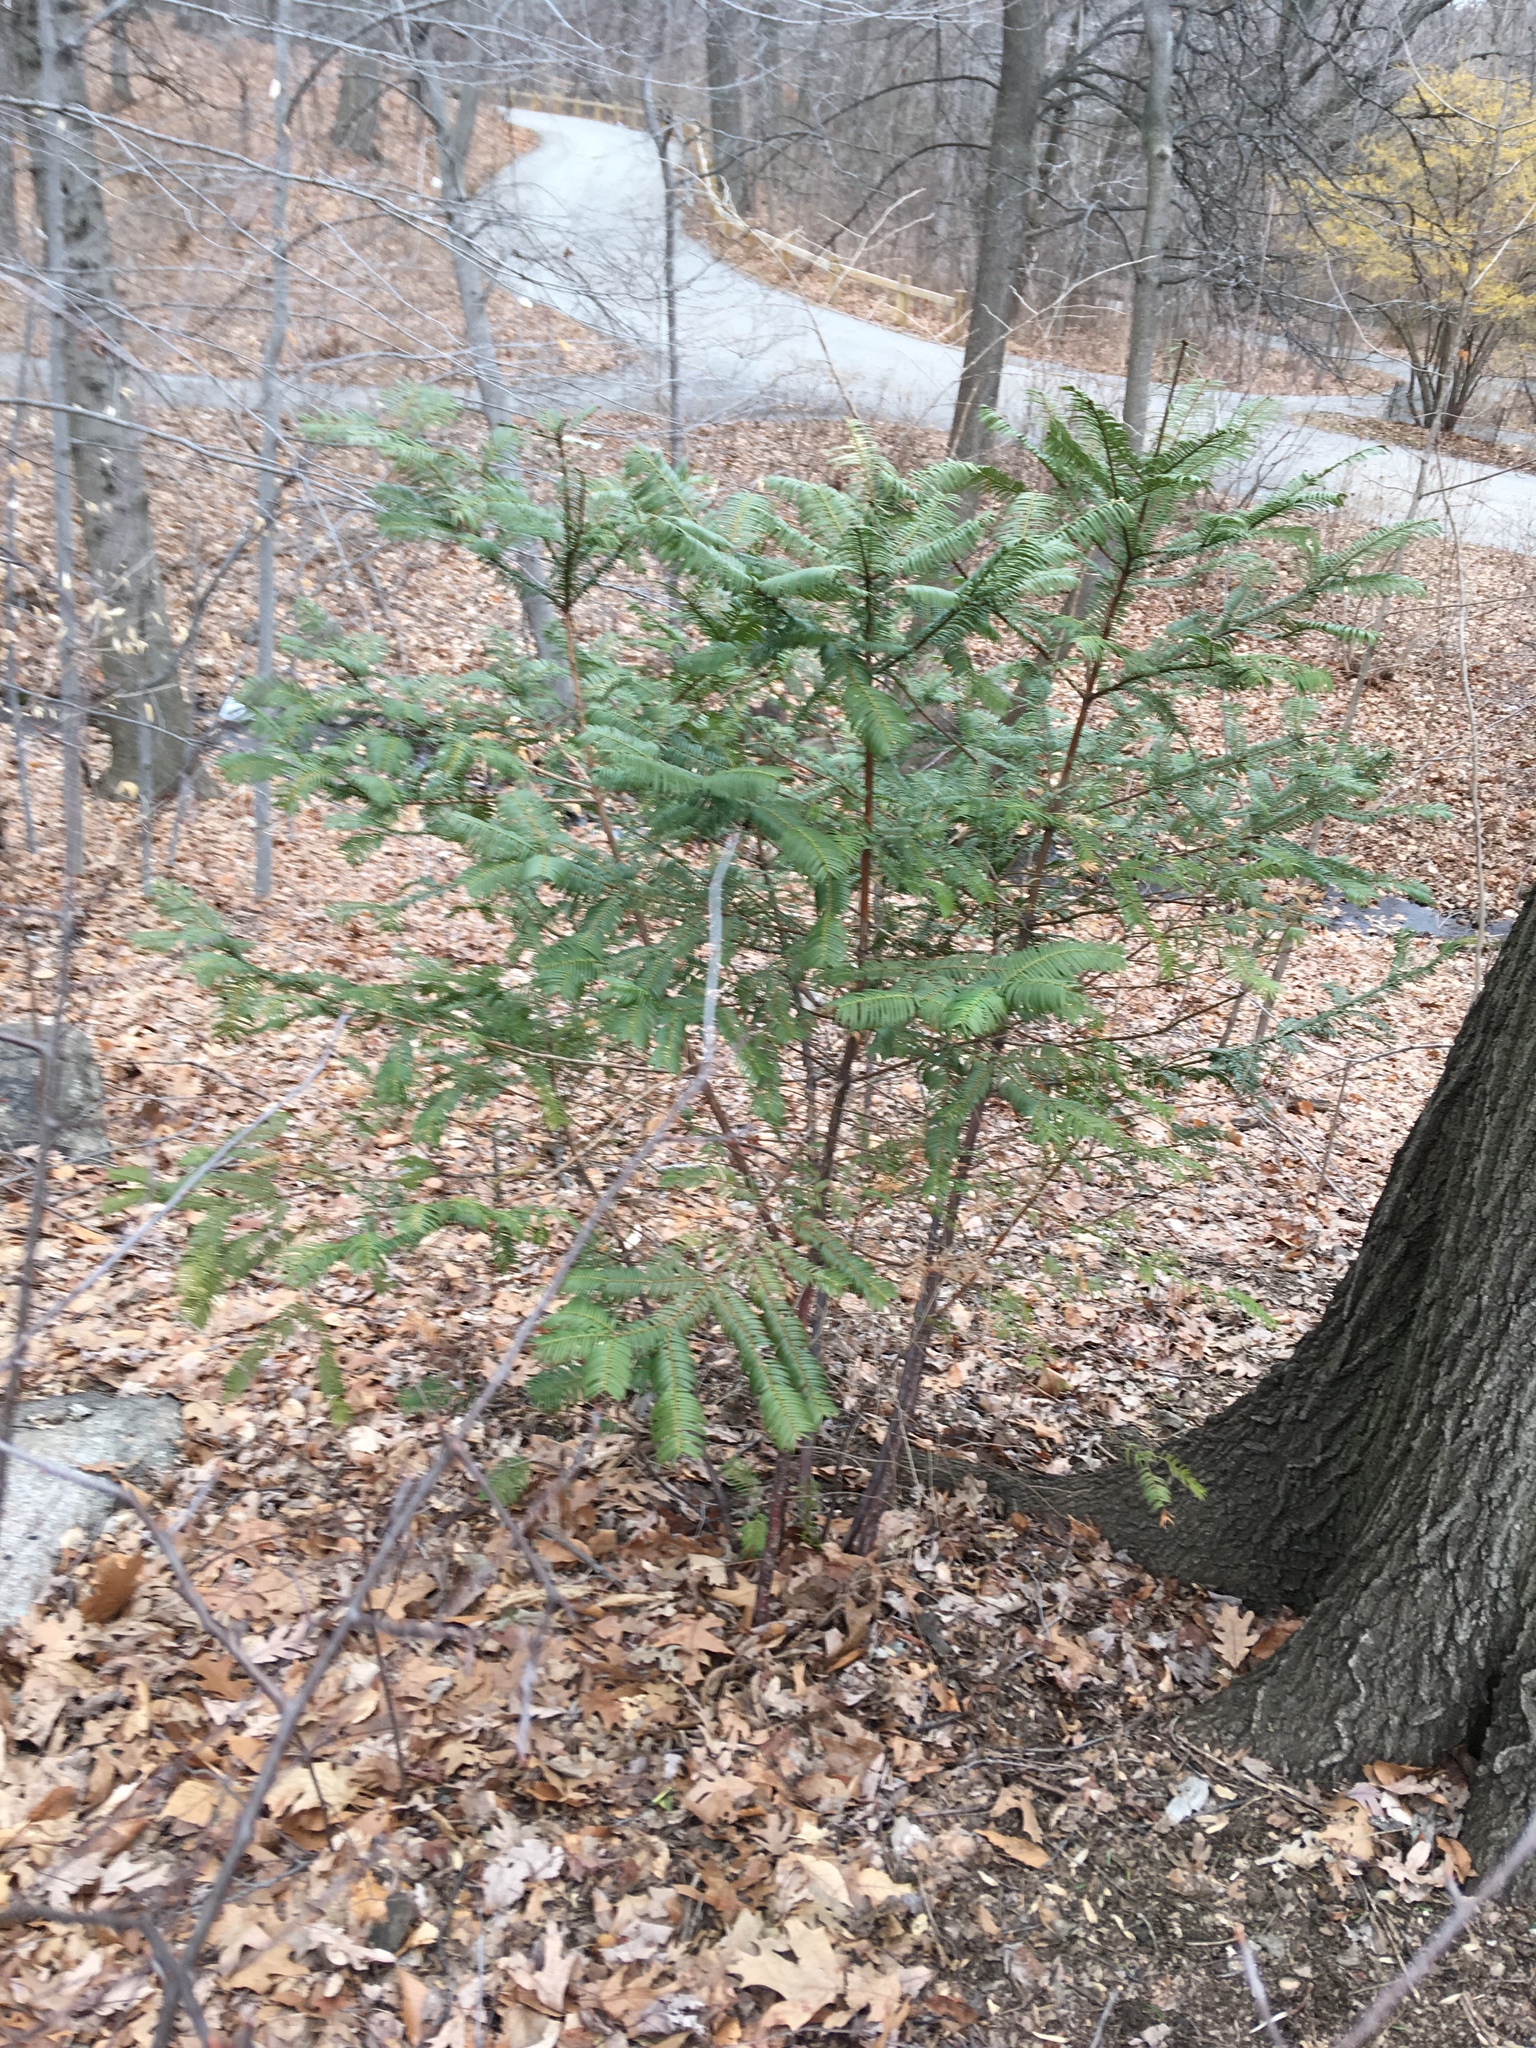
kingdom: Plantae
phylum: Tracheophyta
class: Pinopsida
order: Pinales
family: Cephalotaxaceae
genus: Cephalotaxus
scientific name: Cephalotaxus harringtonia
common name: Japanese plum-yew
